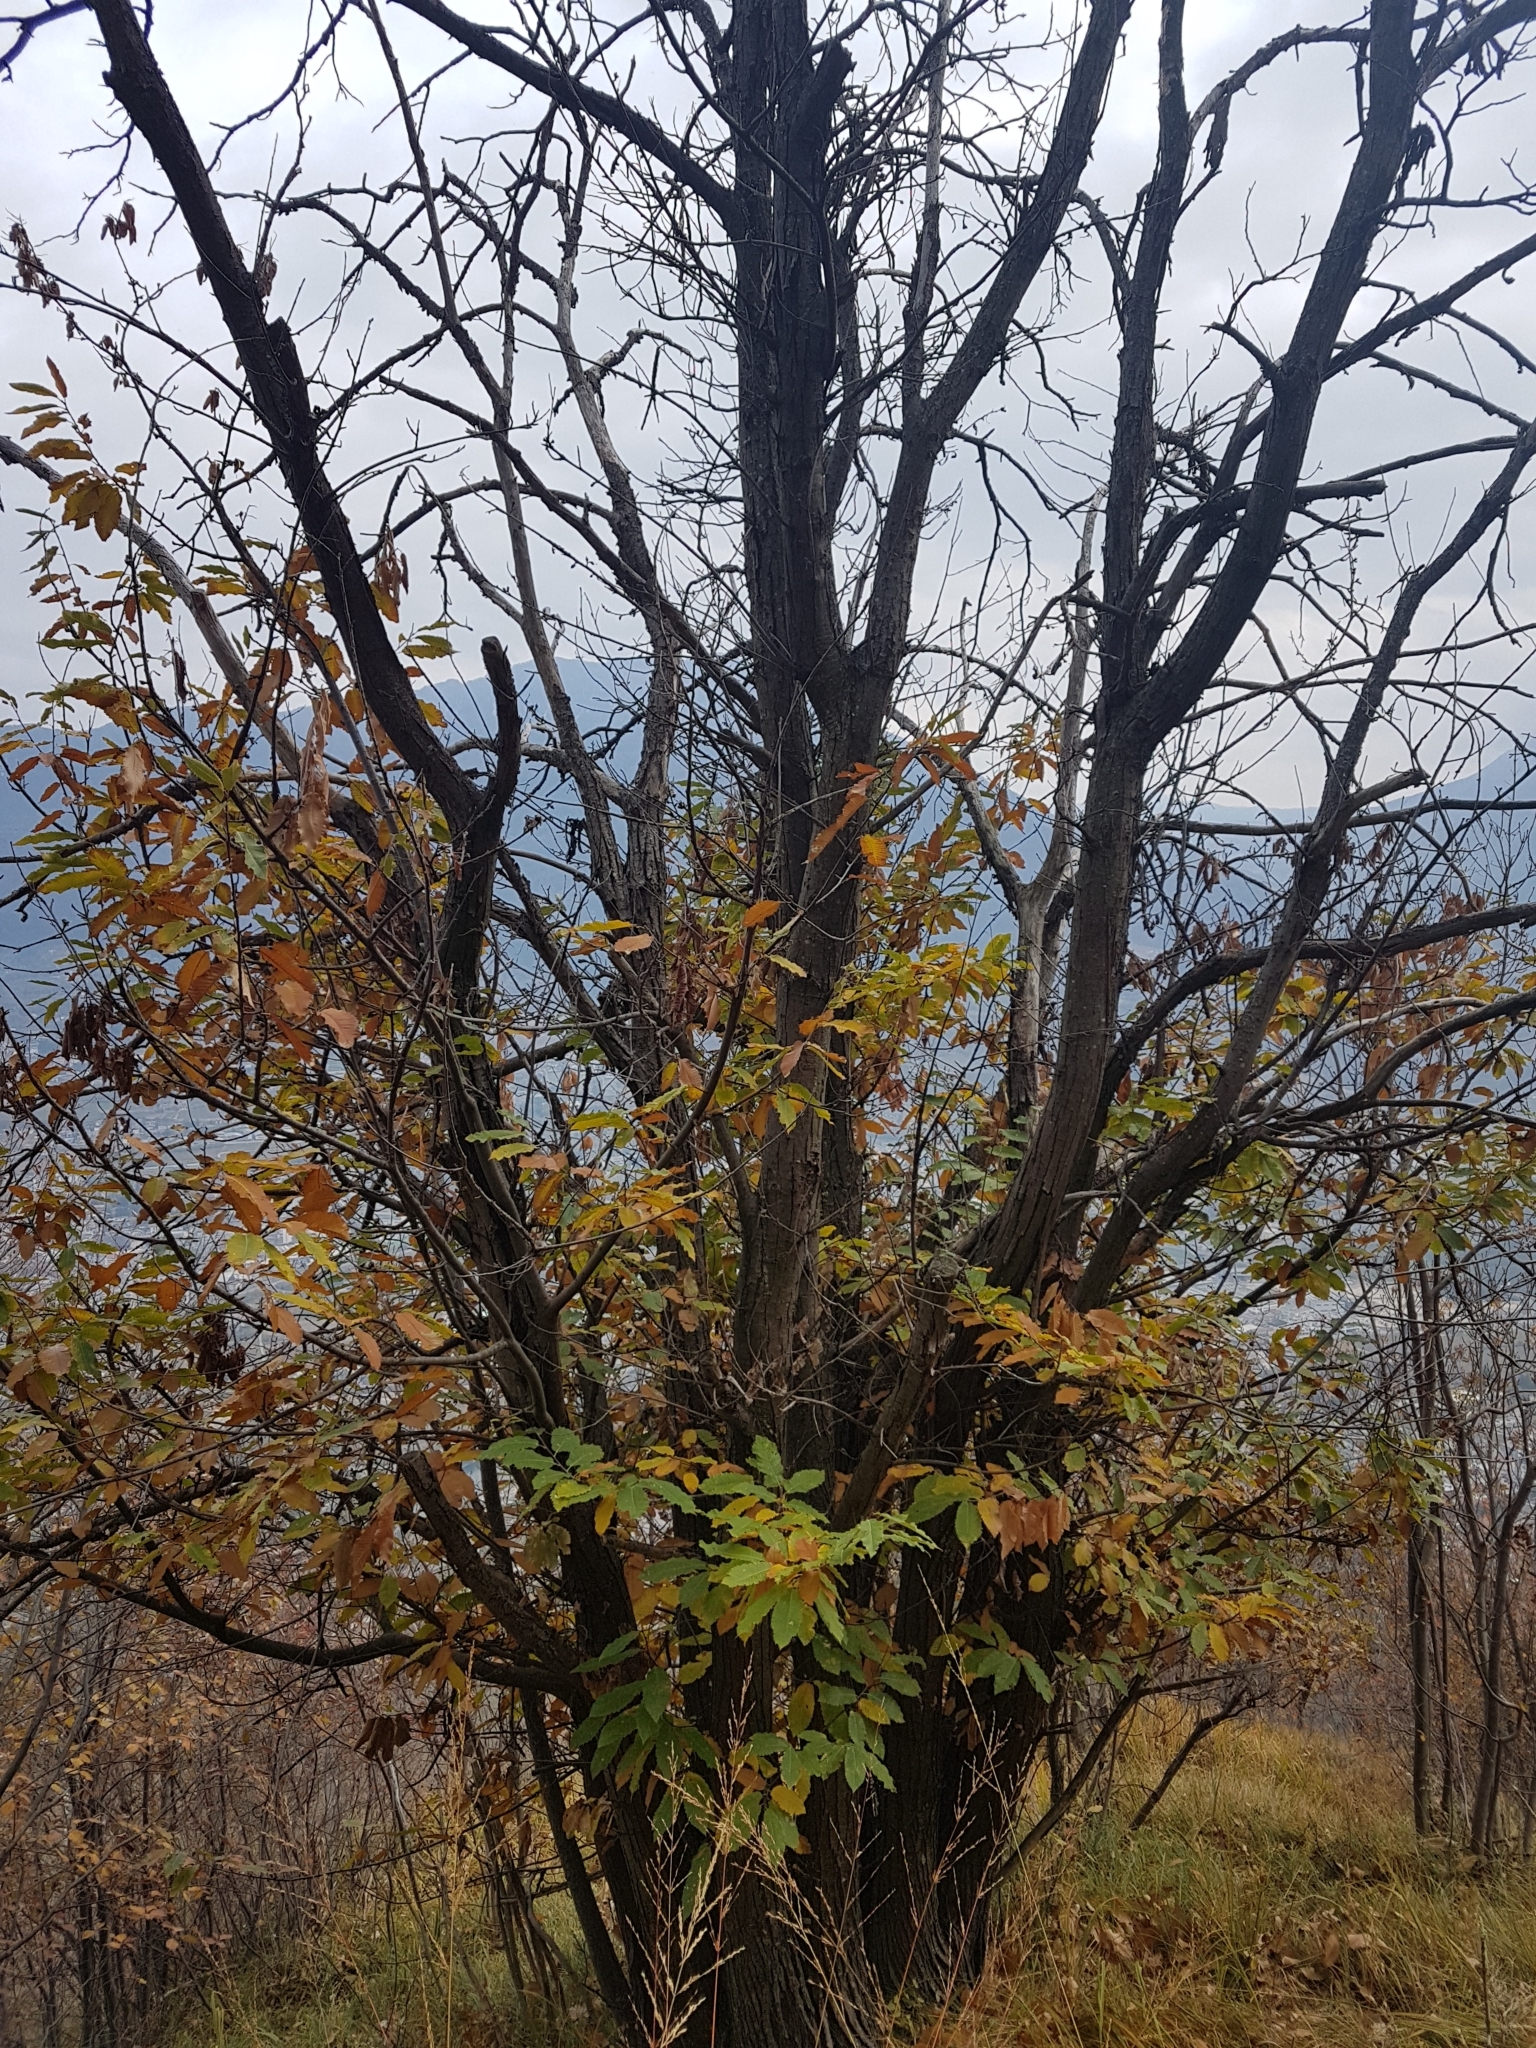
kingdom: Plantae
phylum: Tracheophyta
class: Magnoliopsida
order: Fagales
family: Fagaceae
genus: Castanea
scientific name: Castanea sativa
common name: Sweet chestnut
